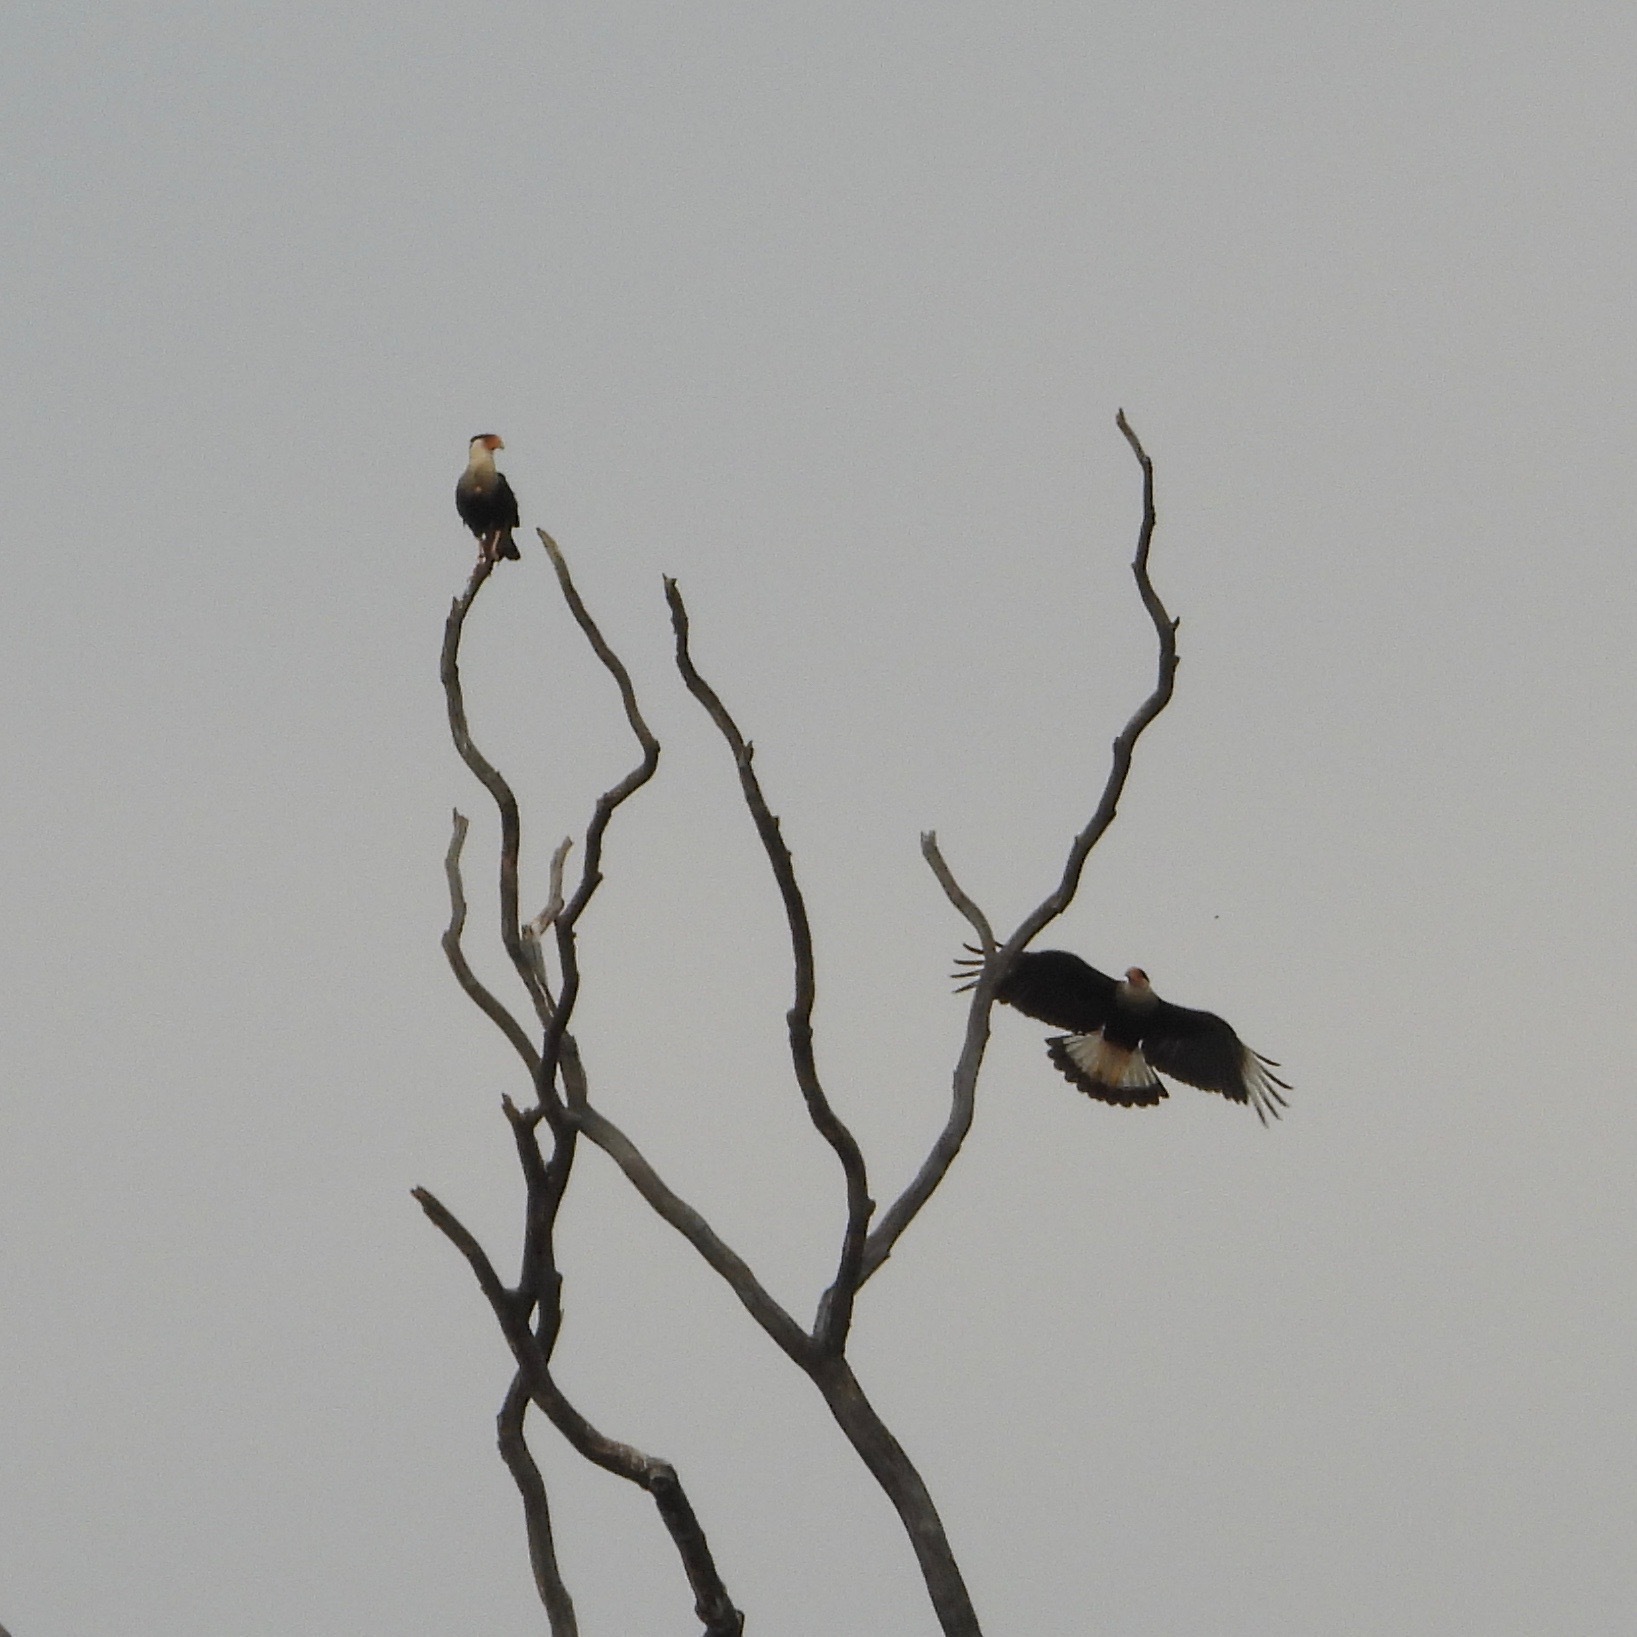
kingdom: Animalia
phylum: Chordata
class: Aves
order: Falconiformes
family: Falconidae
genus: Caracara
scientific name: Caracara plancus
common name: Southern caracara
